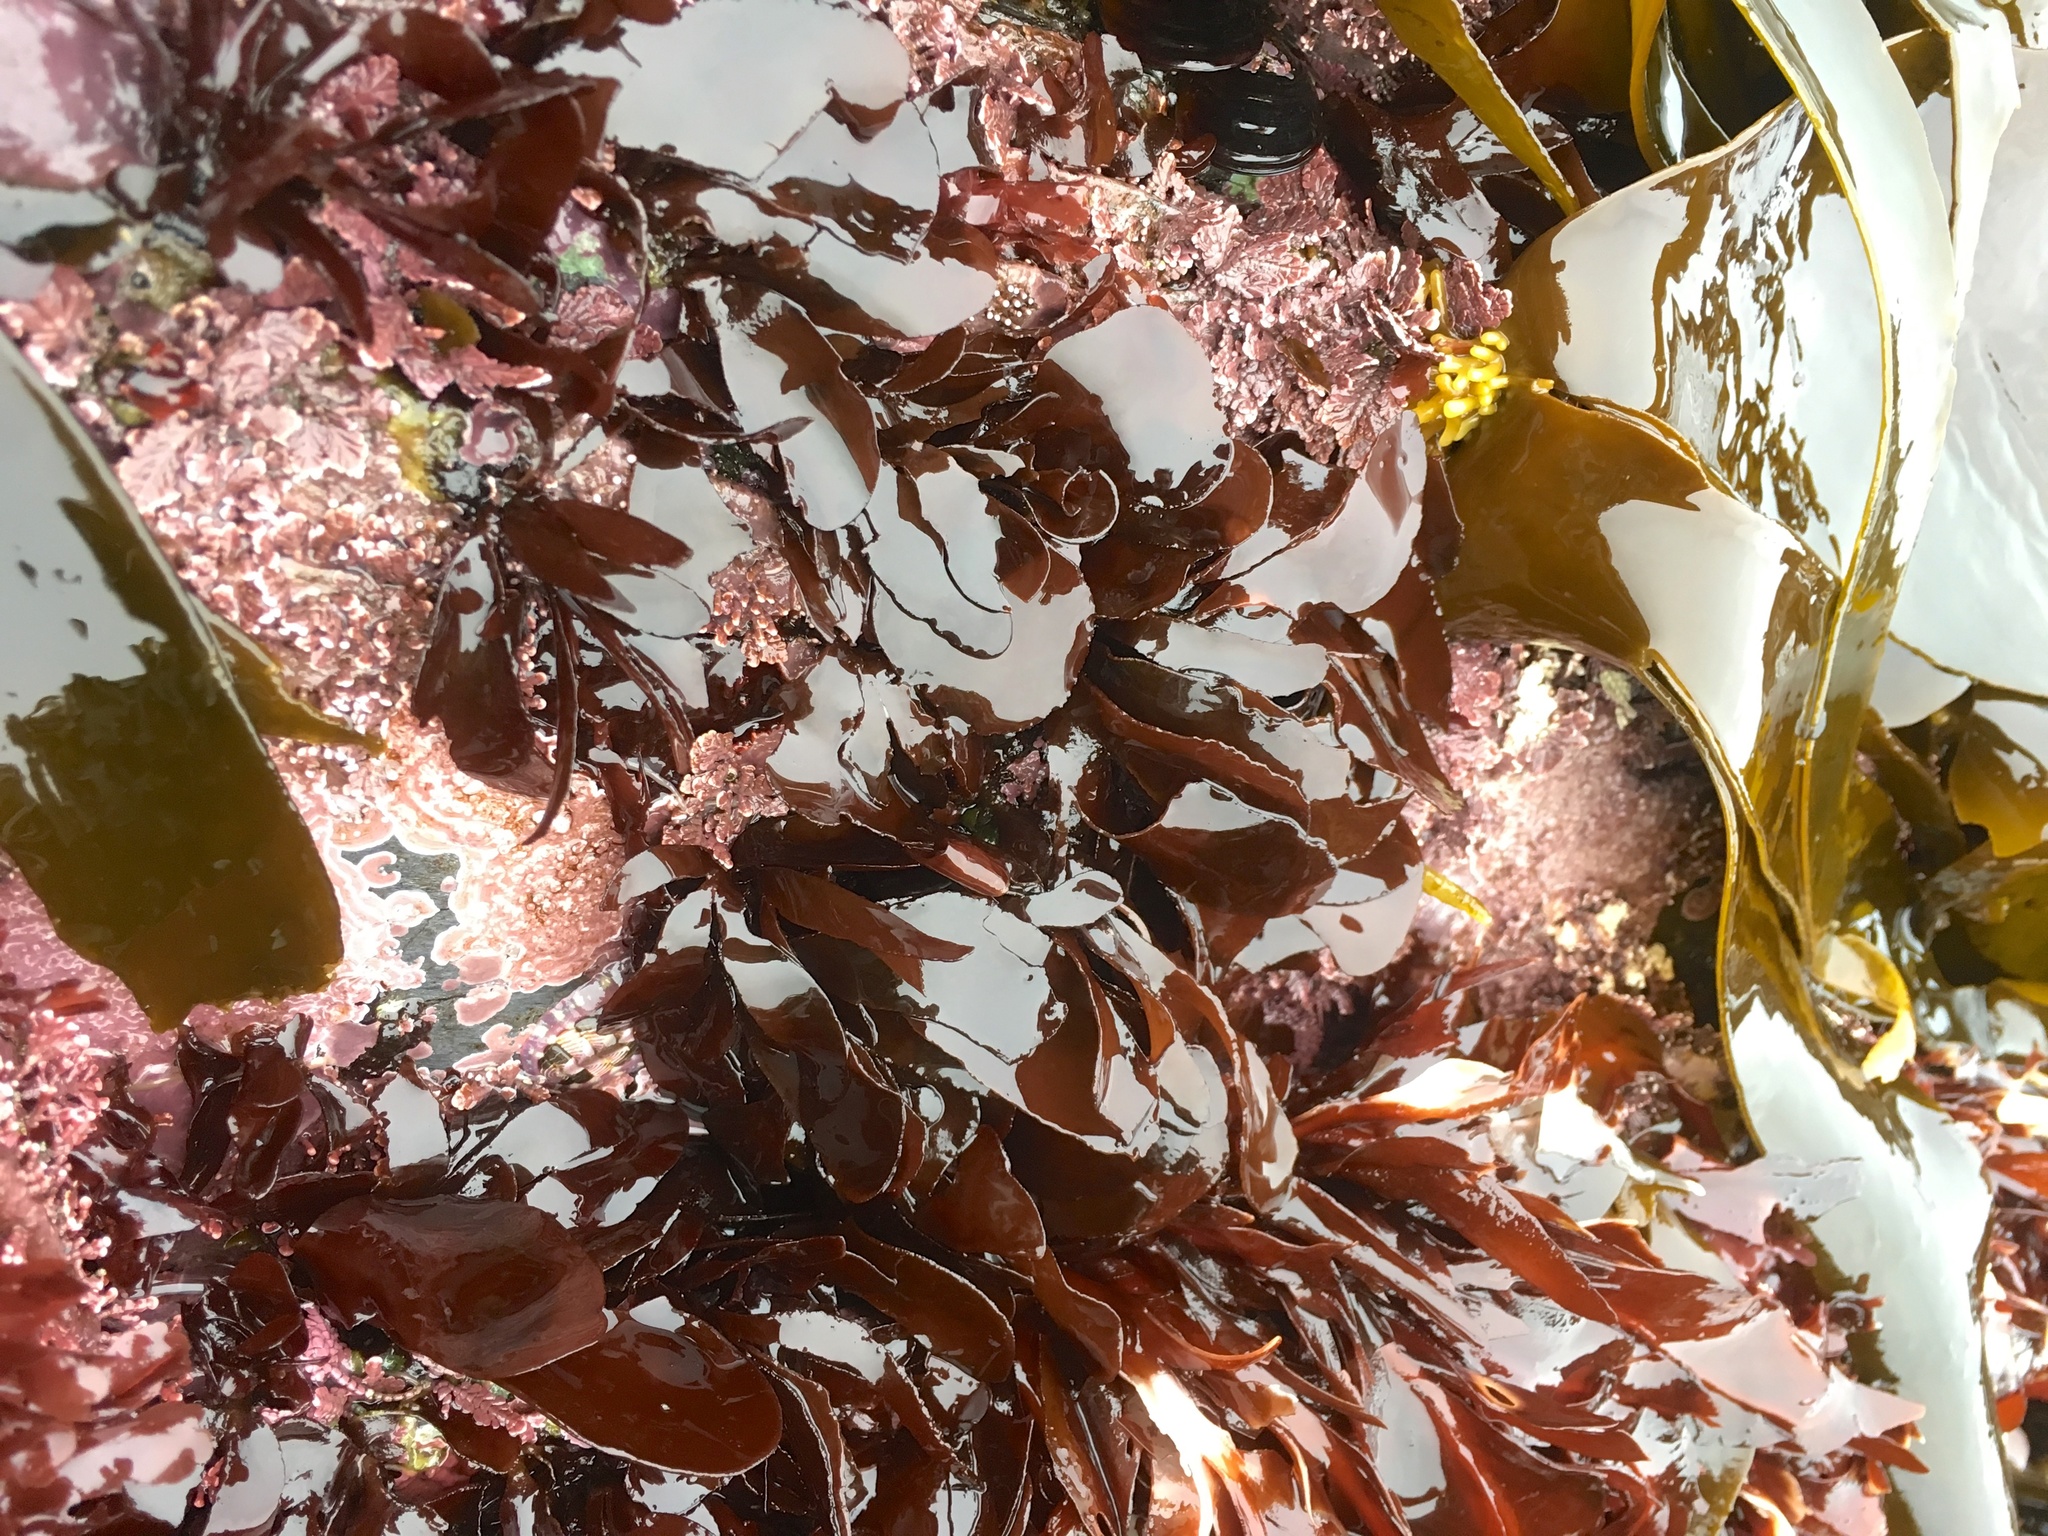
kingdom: Plantae
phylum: Rhodophyta
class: Florideophyceae
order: Gigartinales
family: Dumontiaceae
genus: Dilsea
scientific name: Dilsea californica
